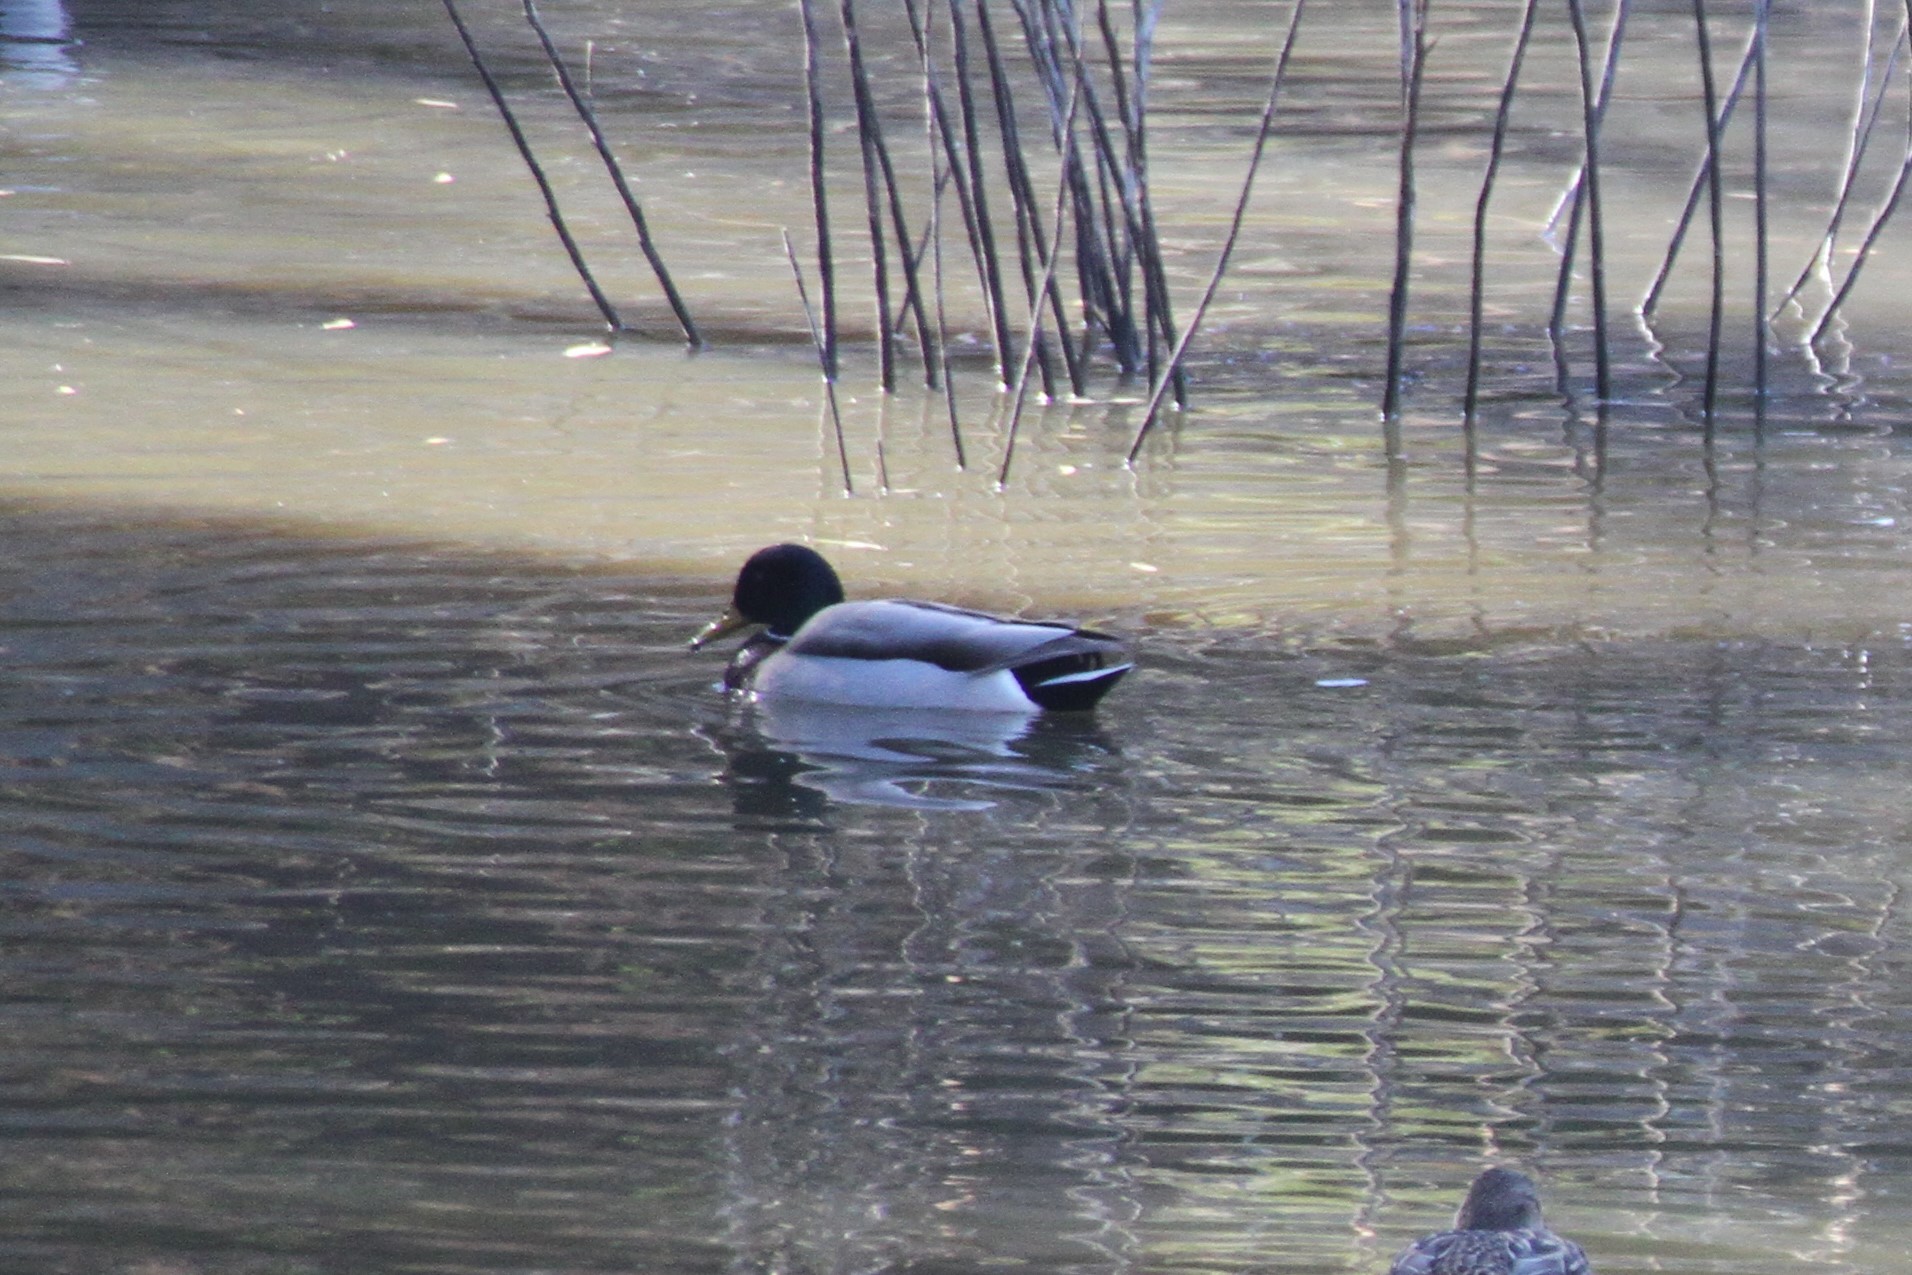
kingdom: Animalia
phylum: Chordata
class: Aves
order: Anseriformes
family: Anatidae
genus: Anas
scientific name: Anas platyrhynchos
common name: Mallard
